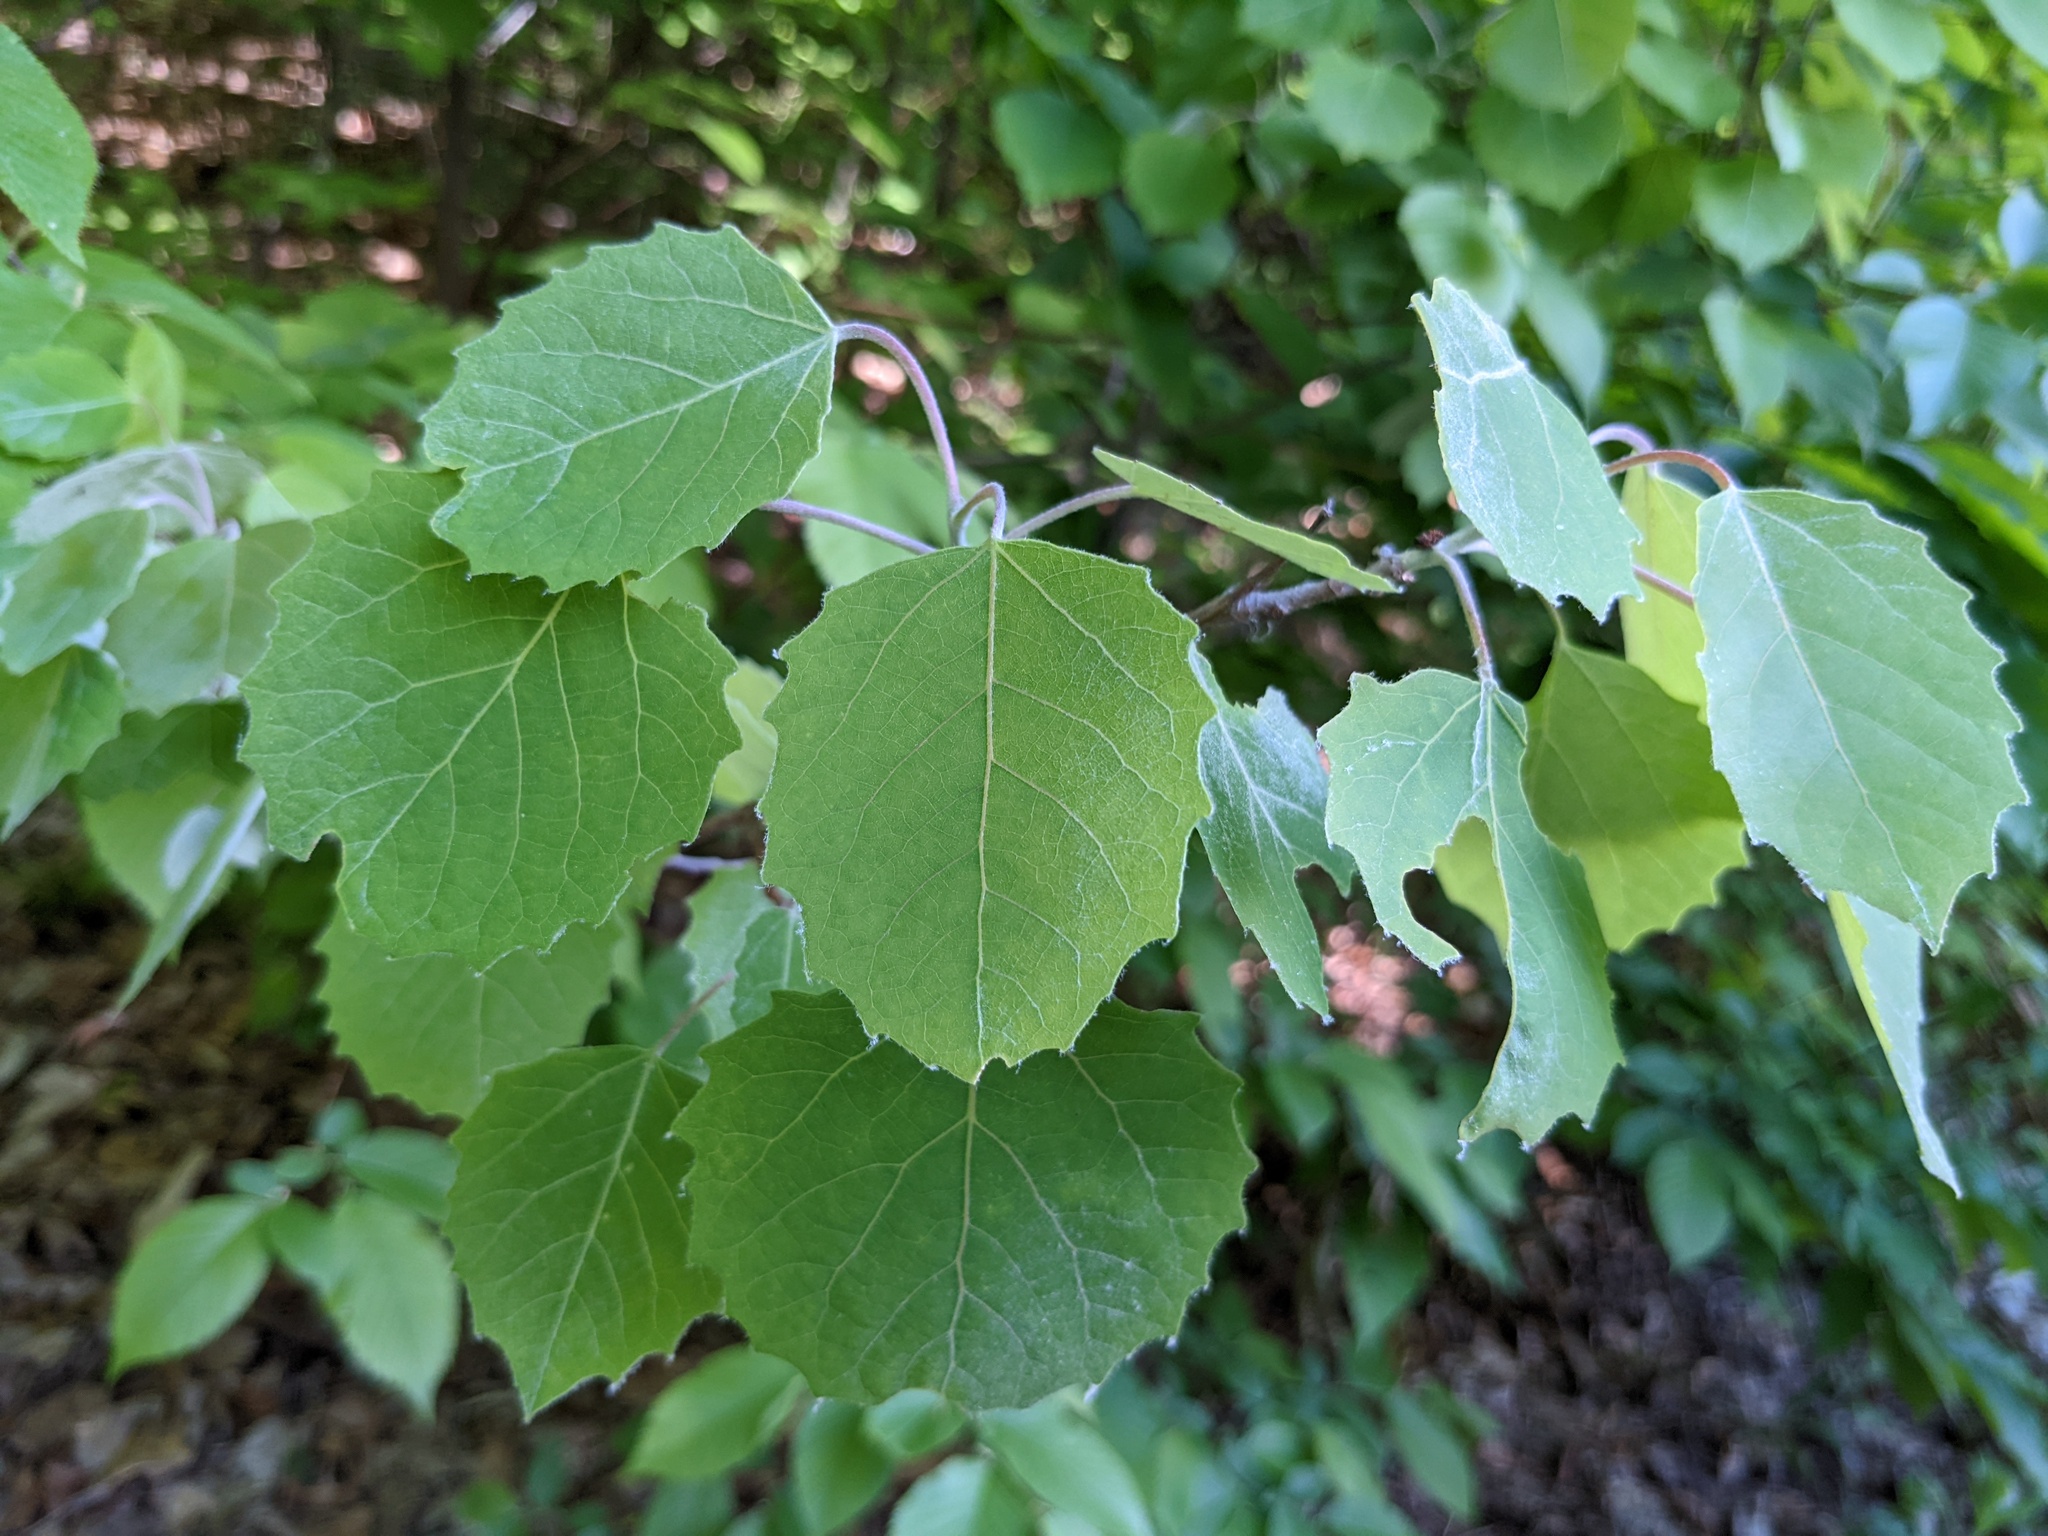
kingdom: Plantae
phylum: Tracheophyta
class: Magnoliopsida
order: Malpighiales
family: Salicaceae
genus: Populus
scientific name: Populus grandidentata
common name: Bigtooth aspen
